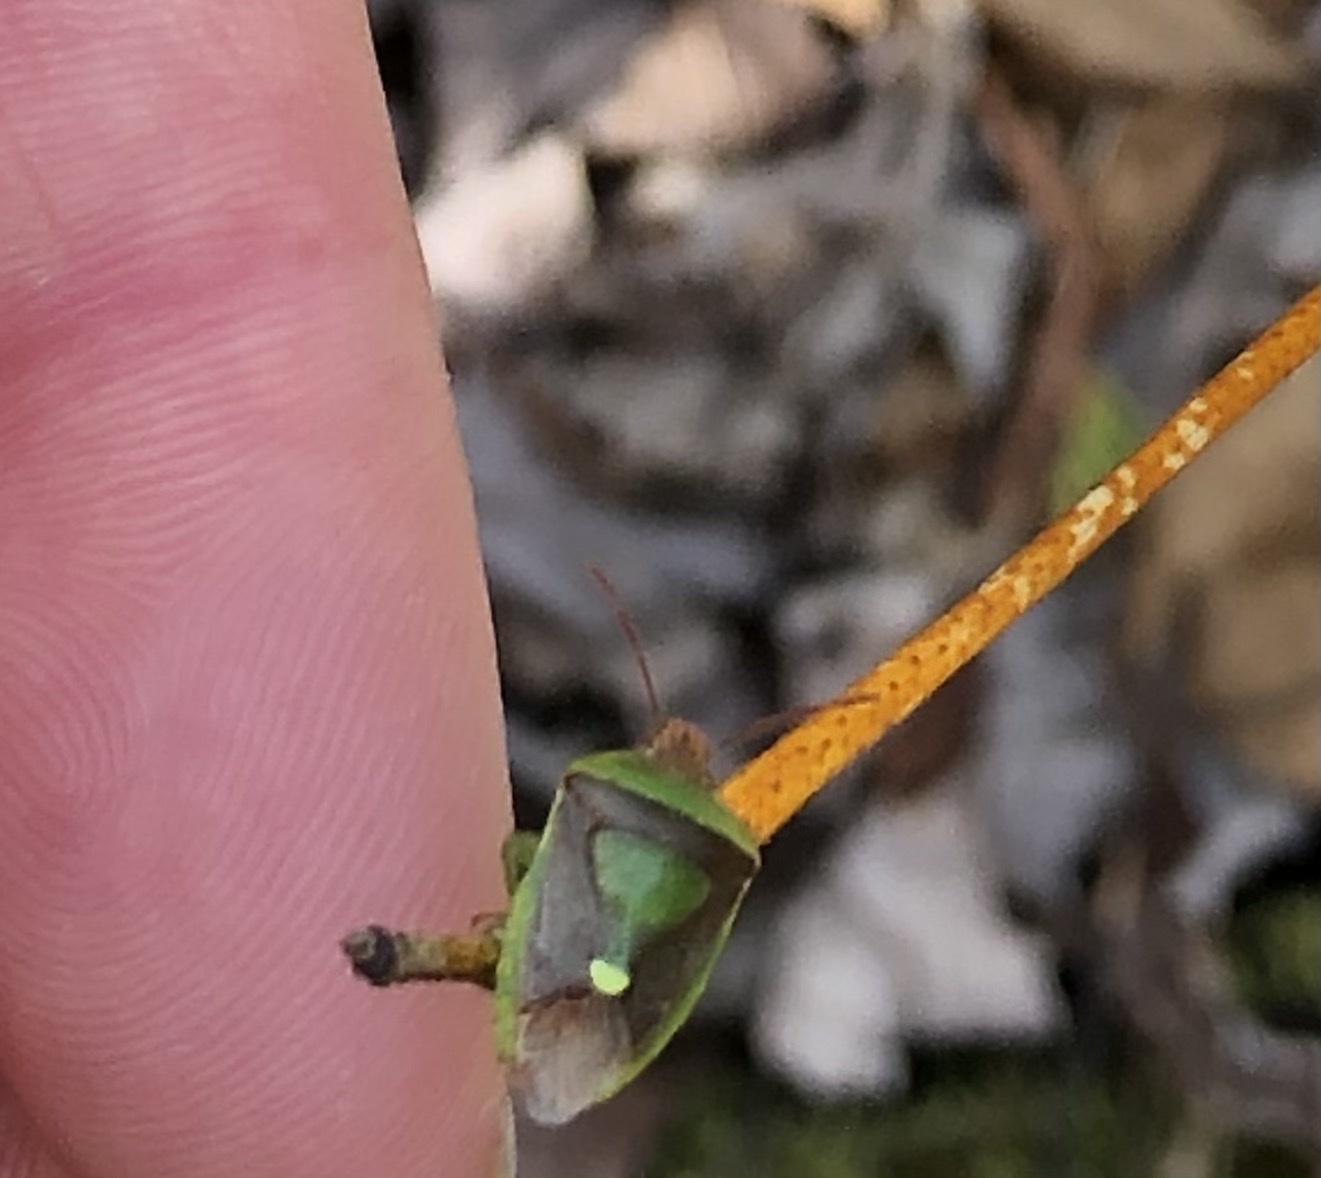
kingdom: Animalia
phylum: Arthropoda
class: Insecta
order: Hemiptera
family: Pentatomidae
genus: Banasa
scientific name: Banasa dimidiata
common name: Green burgundy stink bug
